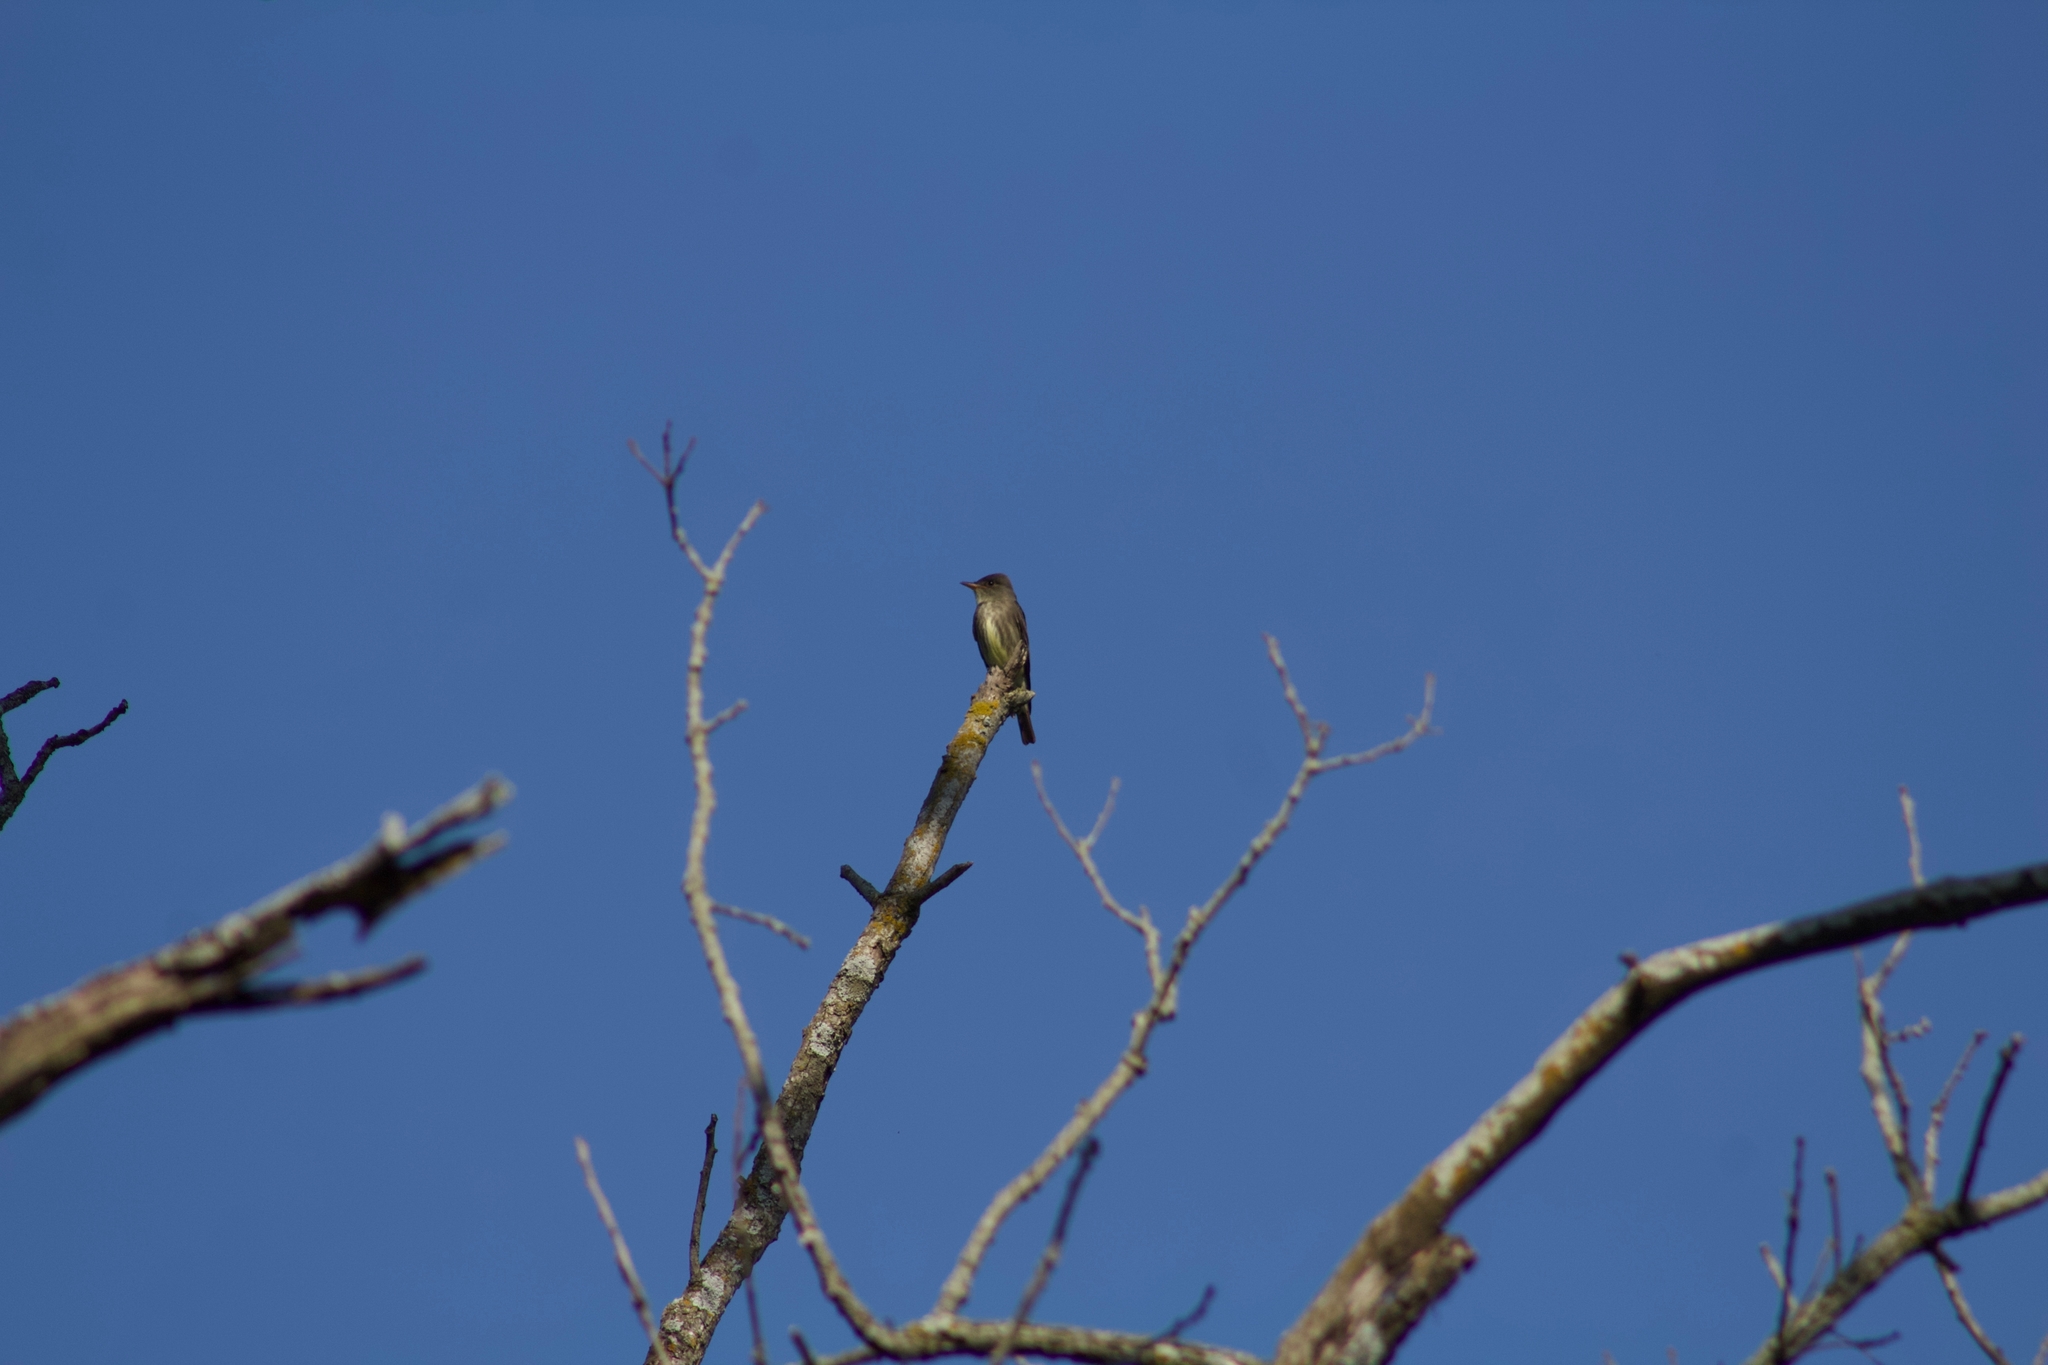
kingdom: Animalia
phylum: Chordata
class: Aves
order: Passeriformes
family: Tyrannidae
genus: Contopus
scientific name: Contopus cooperi
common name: Olive-sided flycatcher
